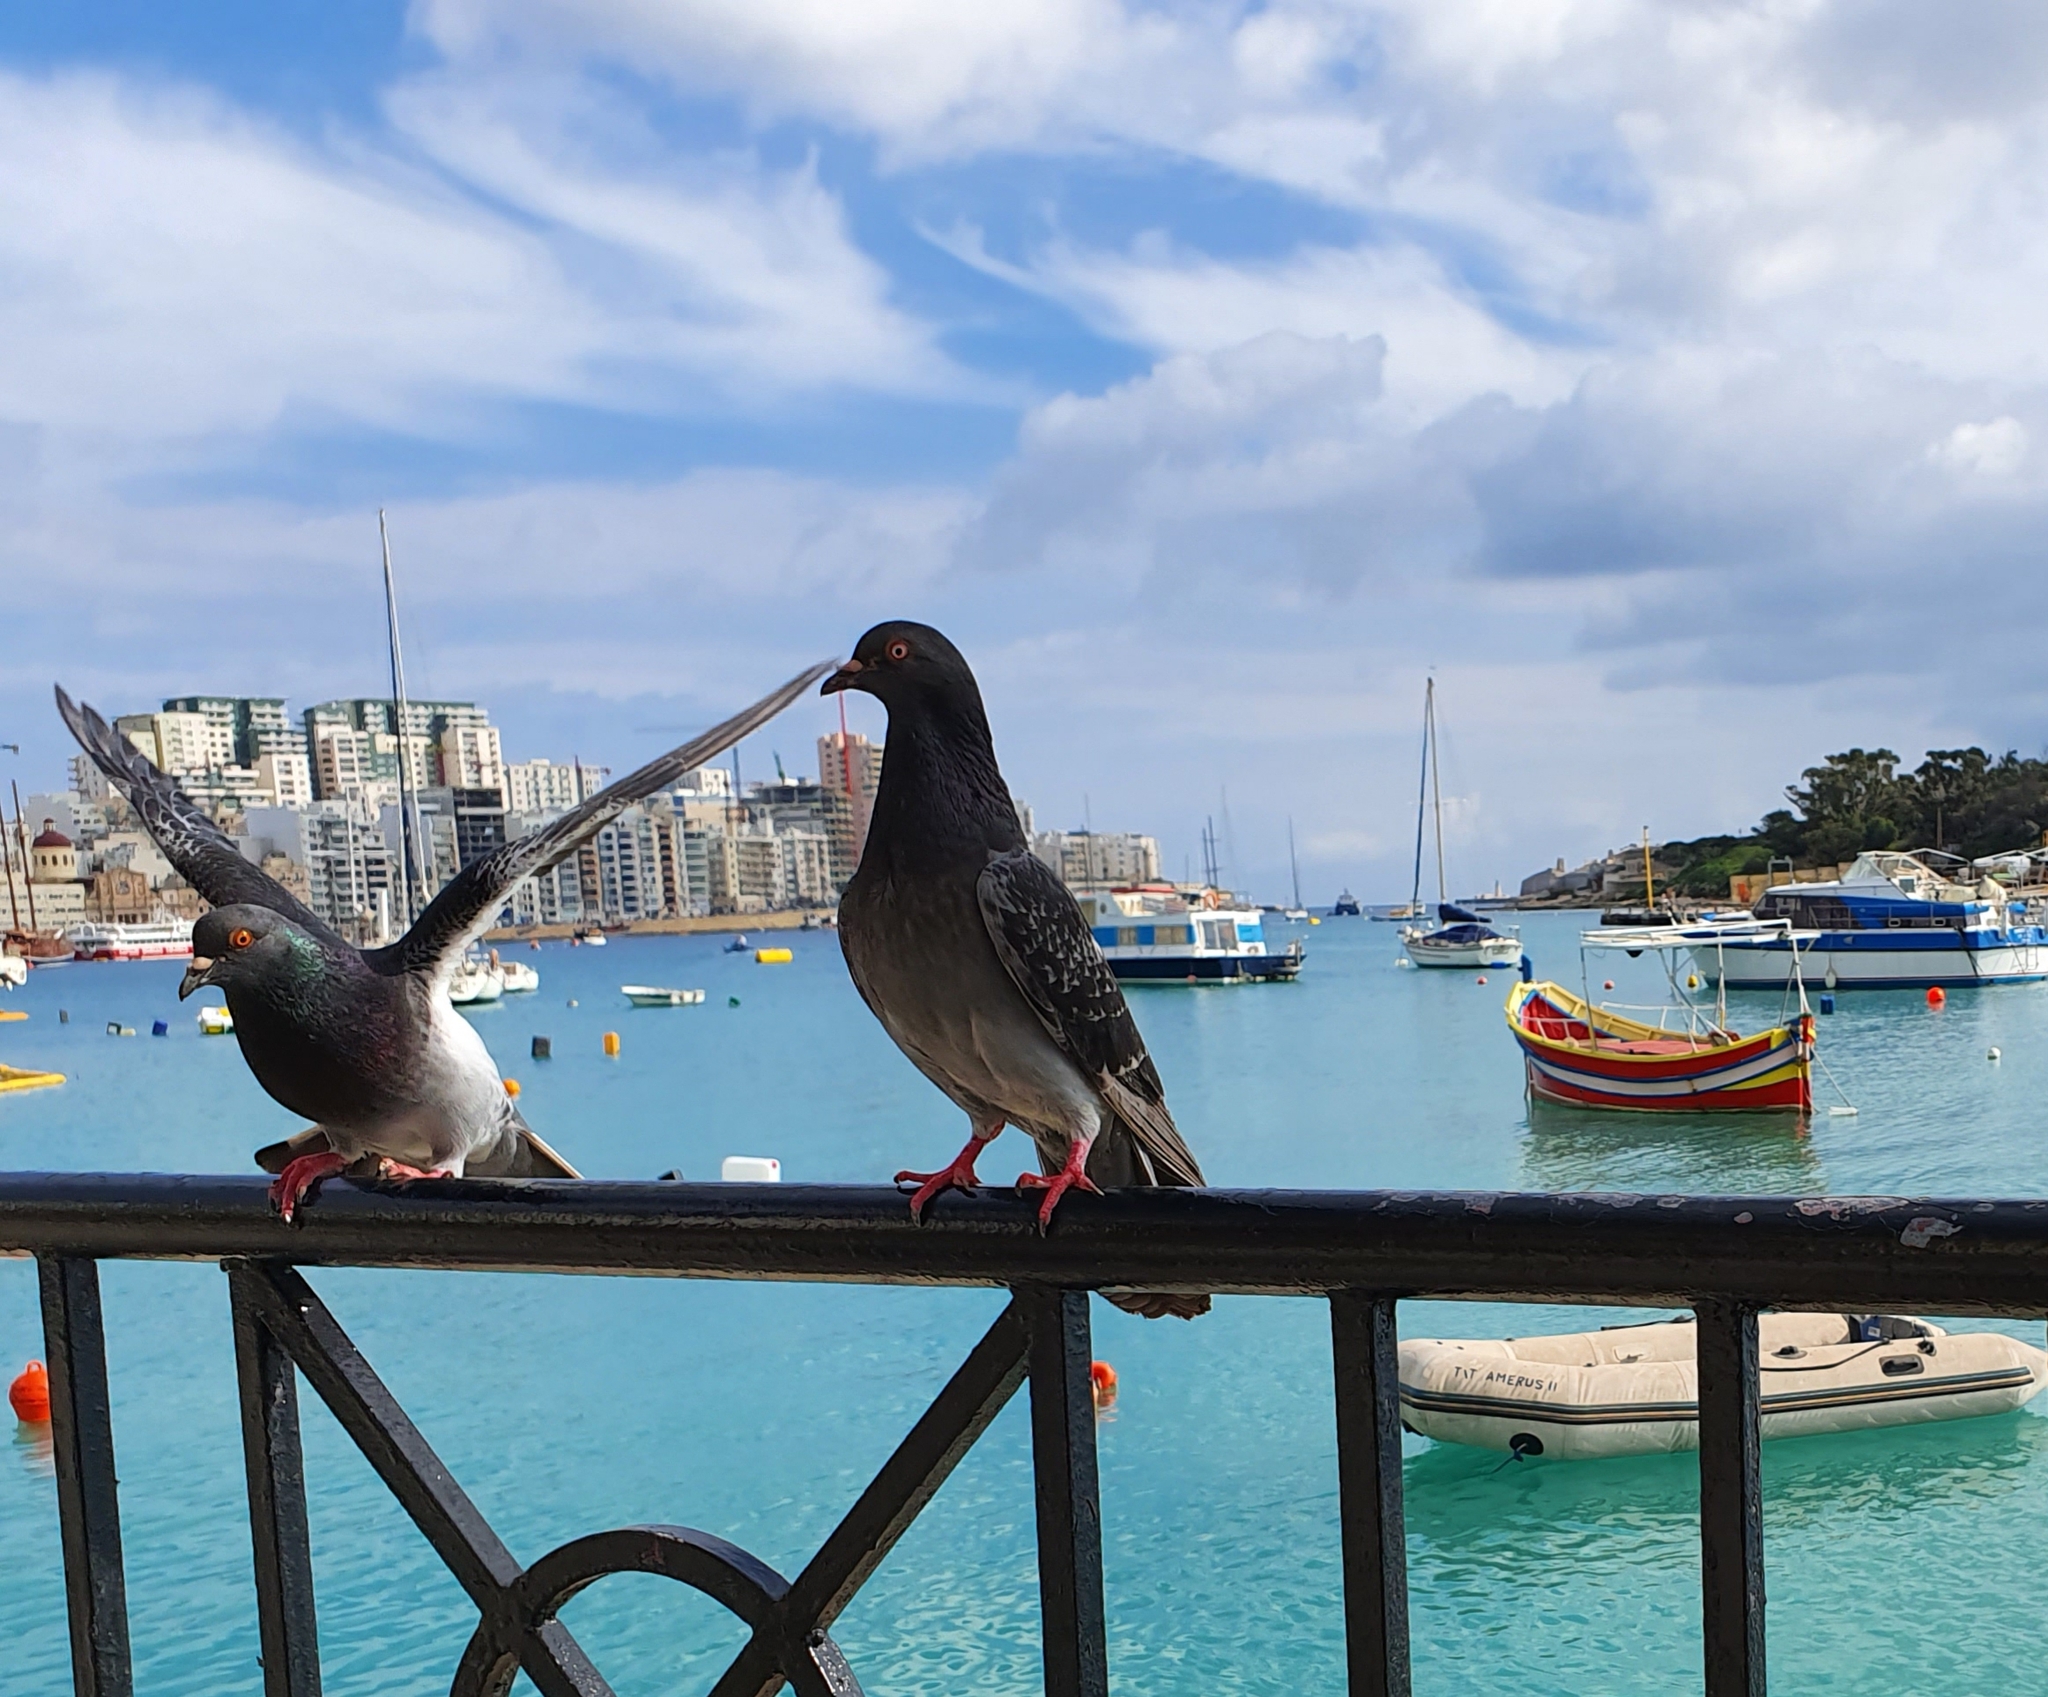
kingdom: Animalia
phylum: Chordata
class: Aves
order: Columbiformes
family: Columbidae
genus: Columba
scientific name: Columba livia
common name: Rock pigeon
